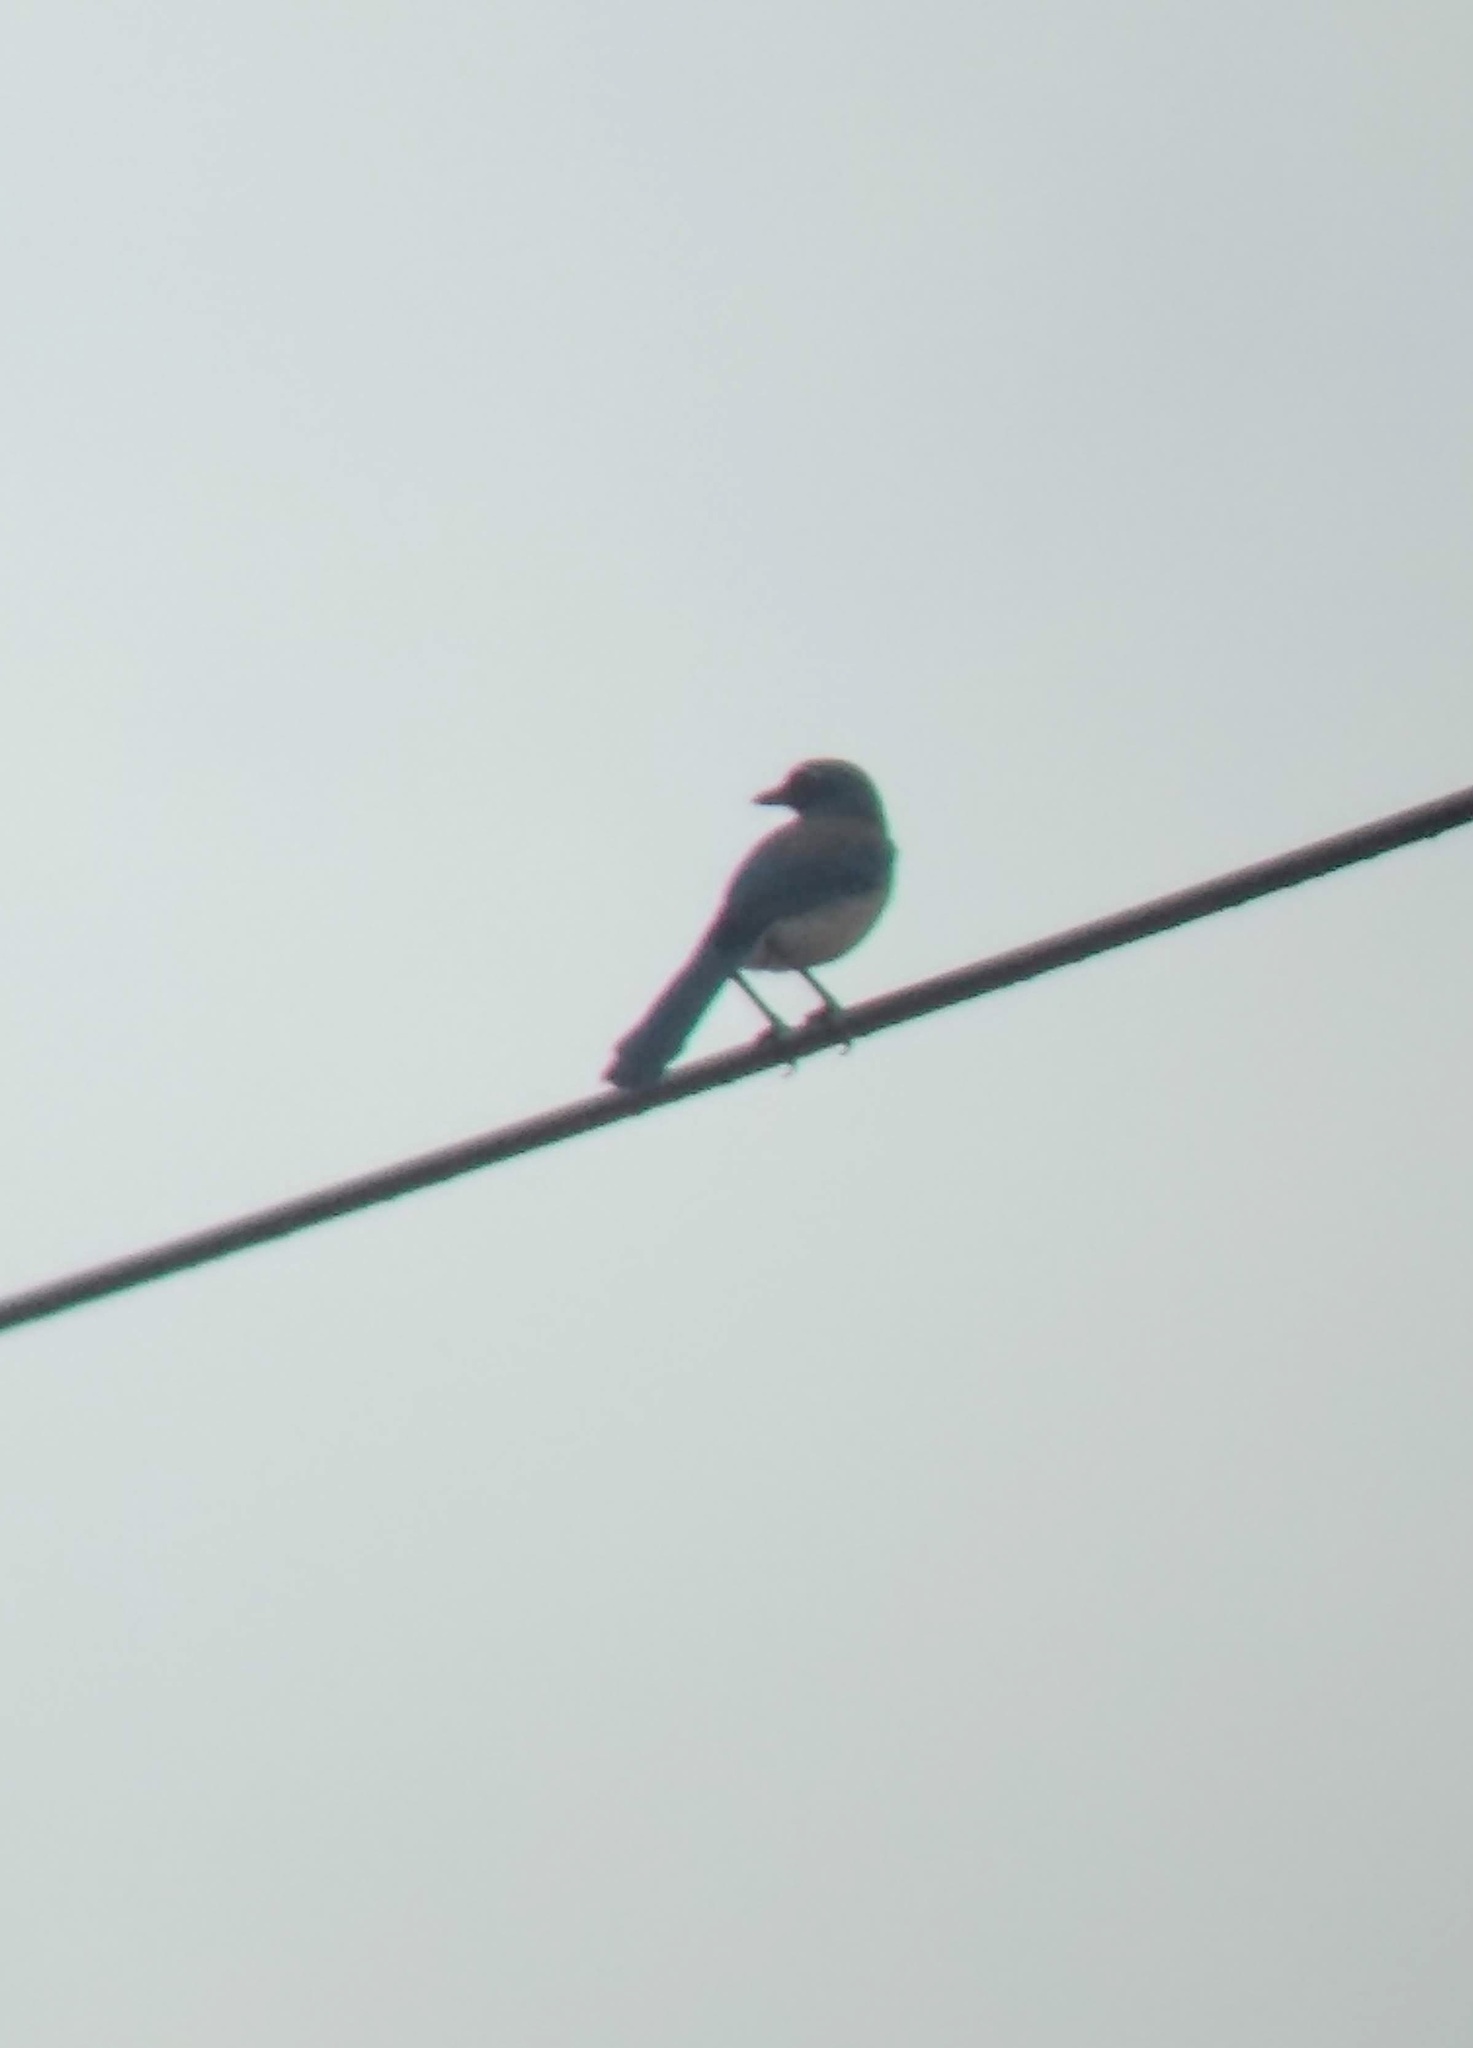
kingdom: Animalia
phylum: Chordata
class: Aves
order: Passeriformes
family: Corvidae
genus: Aphelocoma
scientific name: Aphelocoma californica
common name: California scrub-jay
